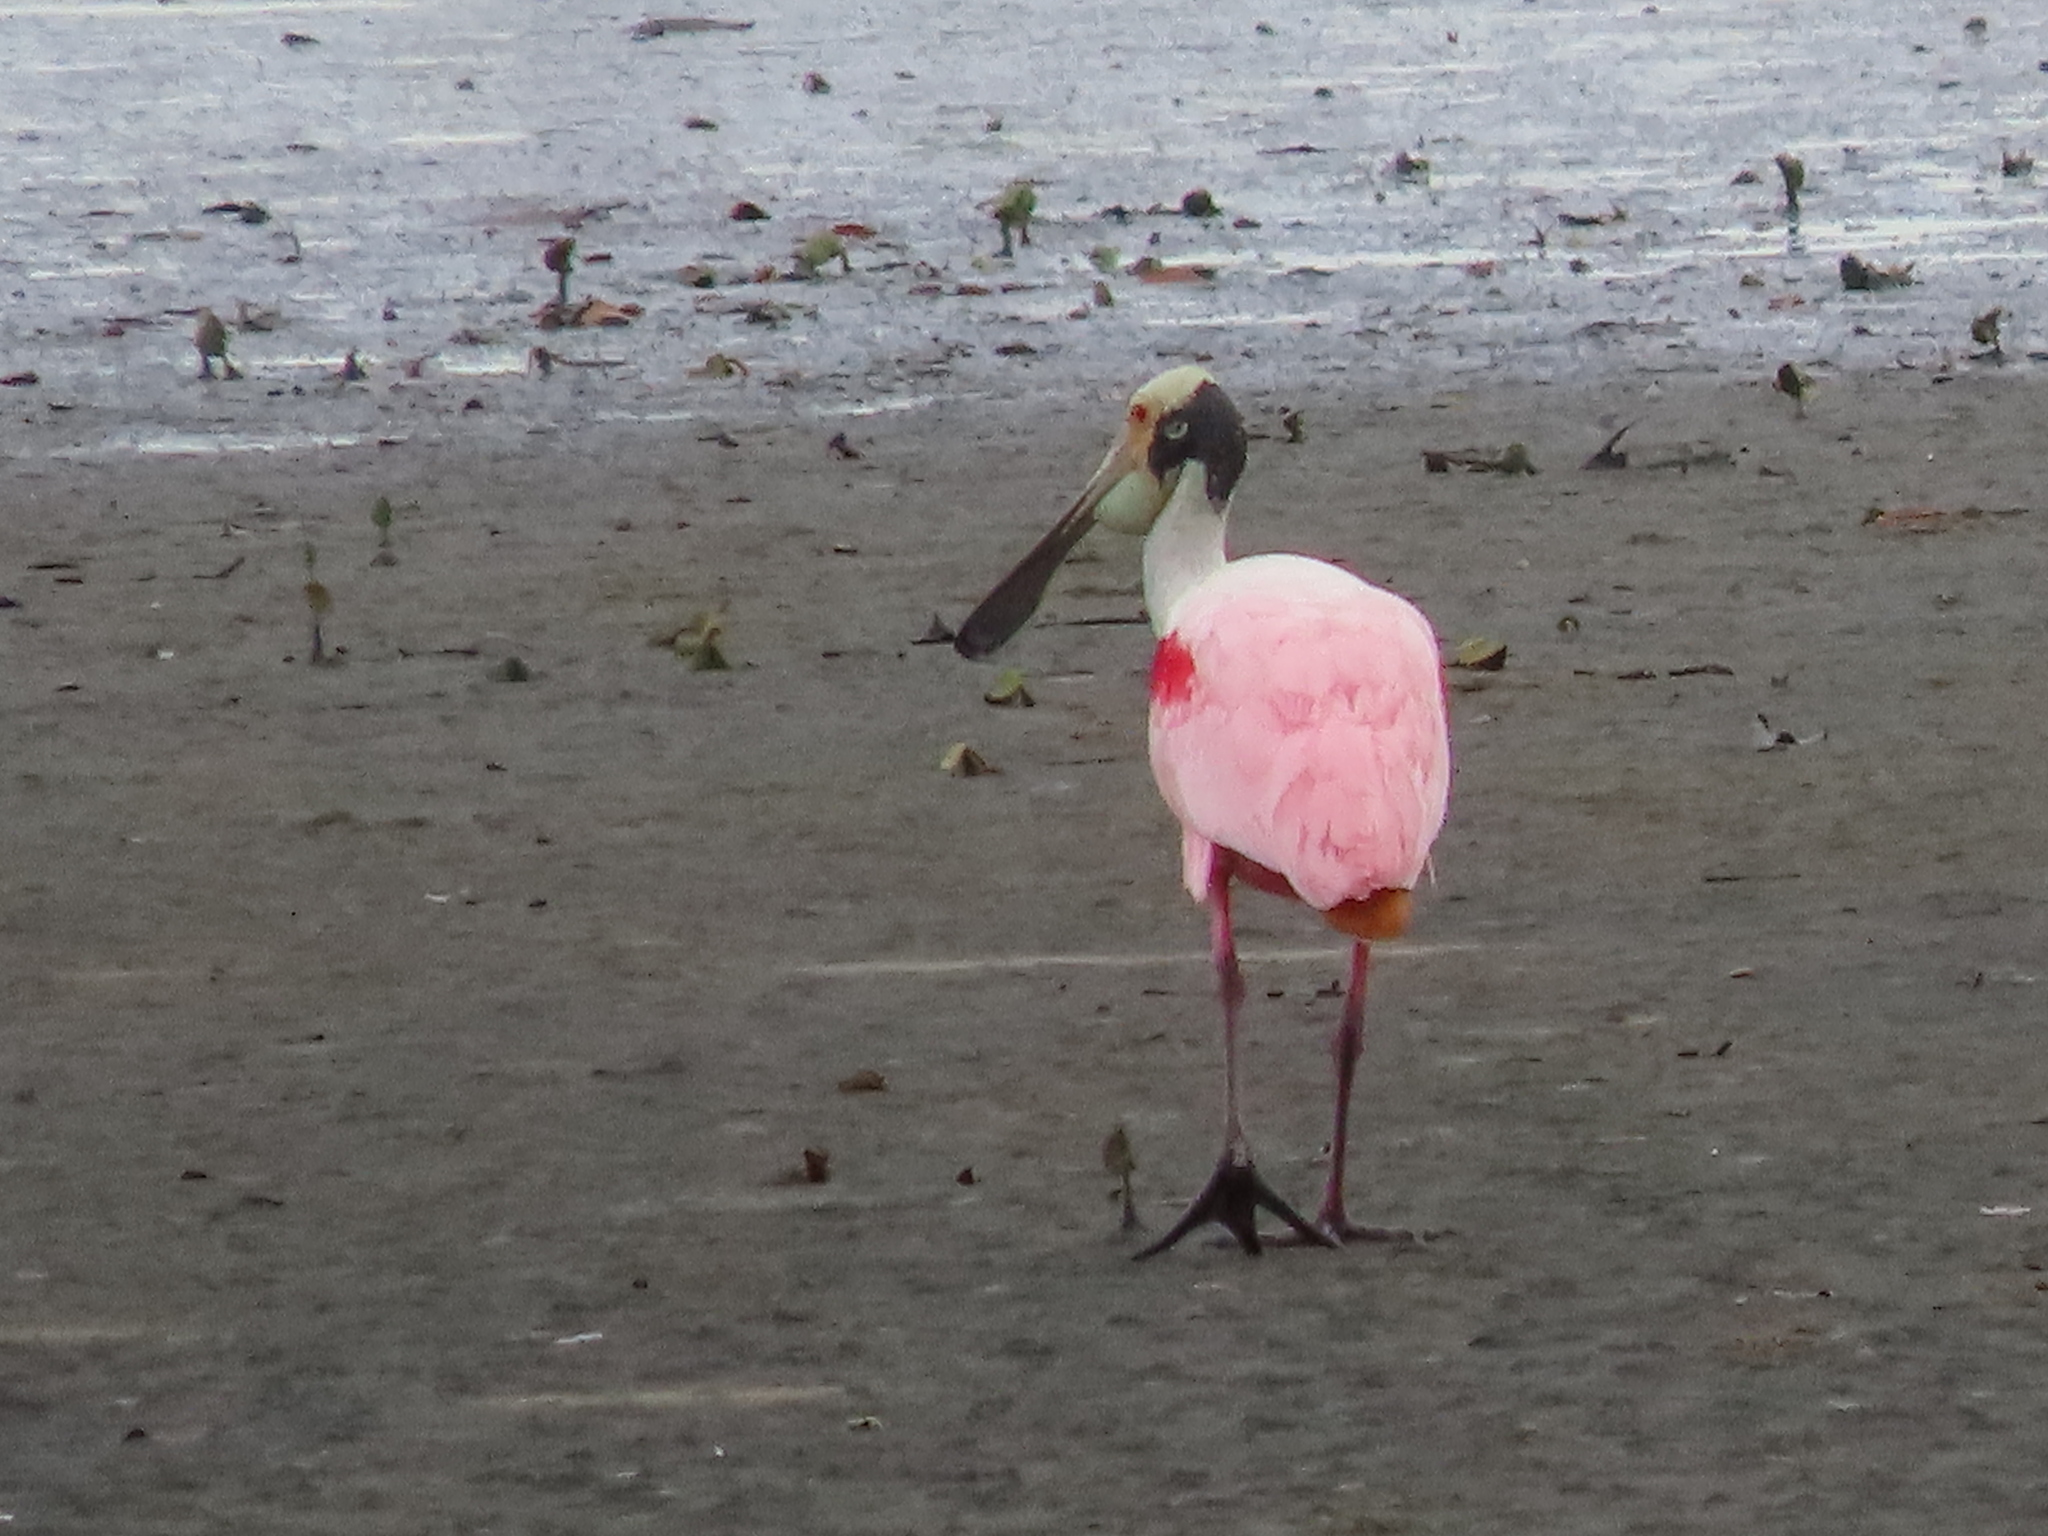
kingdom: Animalia
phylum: Chordata
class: Aves
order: Pelecaniformes
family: Threskiornithidae
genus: Platalea
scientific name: Platalea ajaja
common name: Roseate spoonbill
